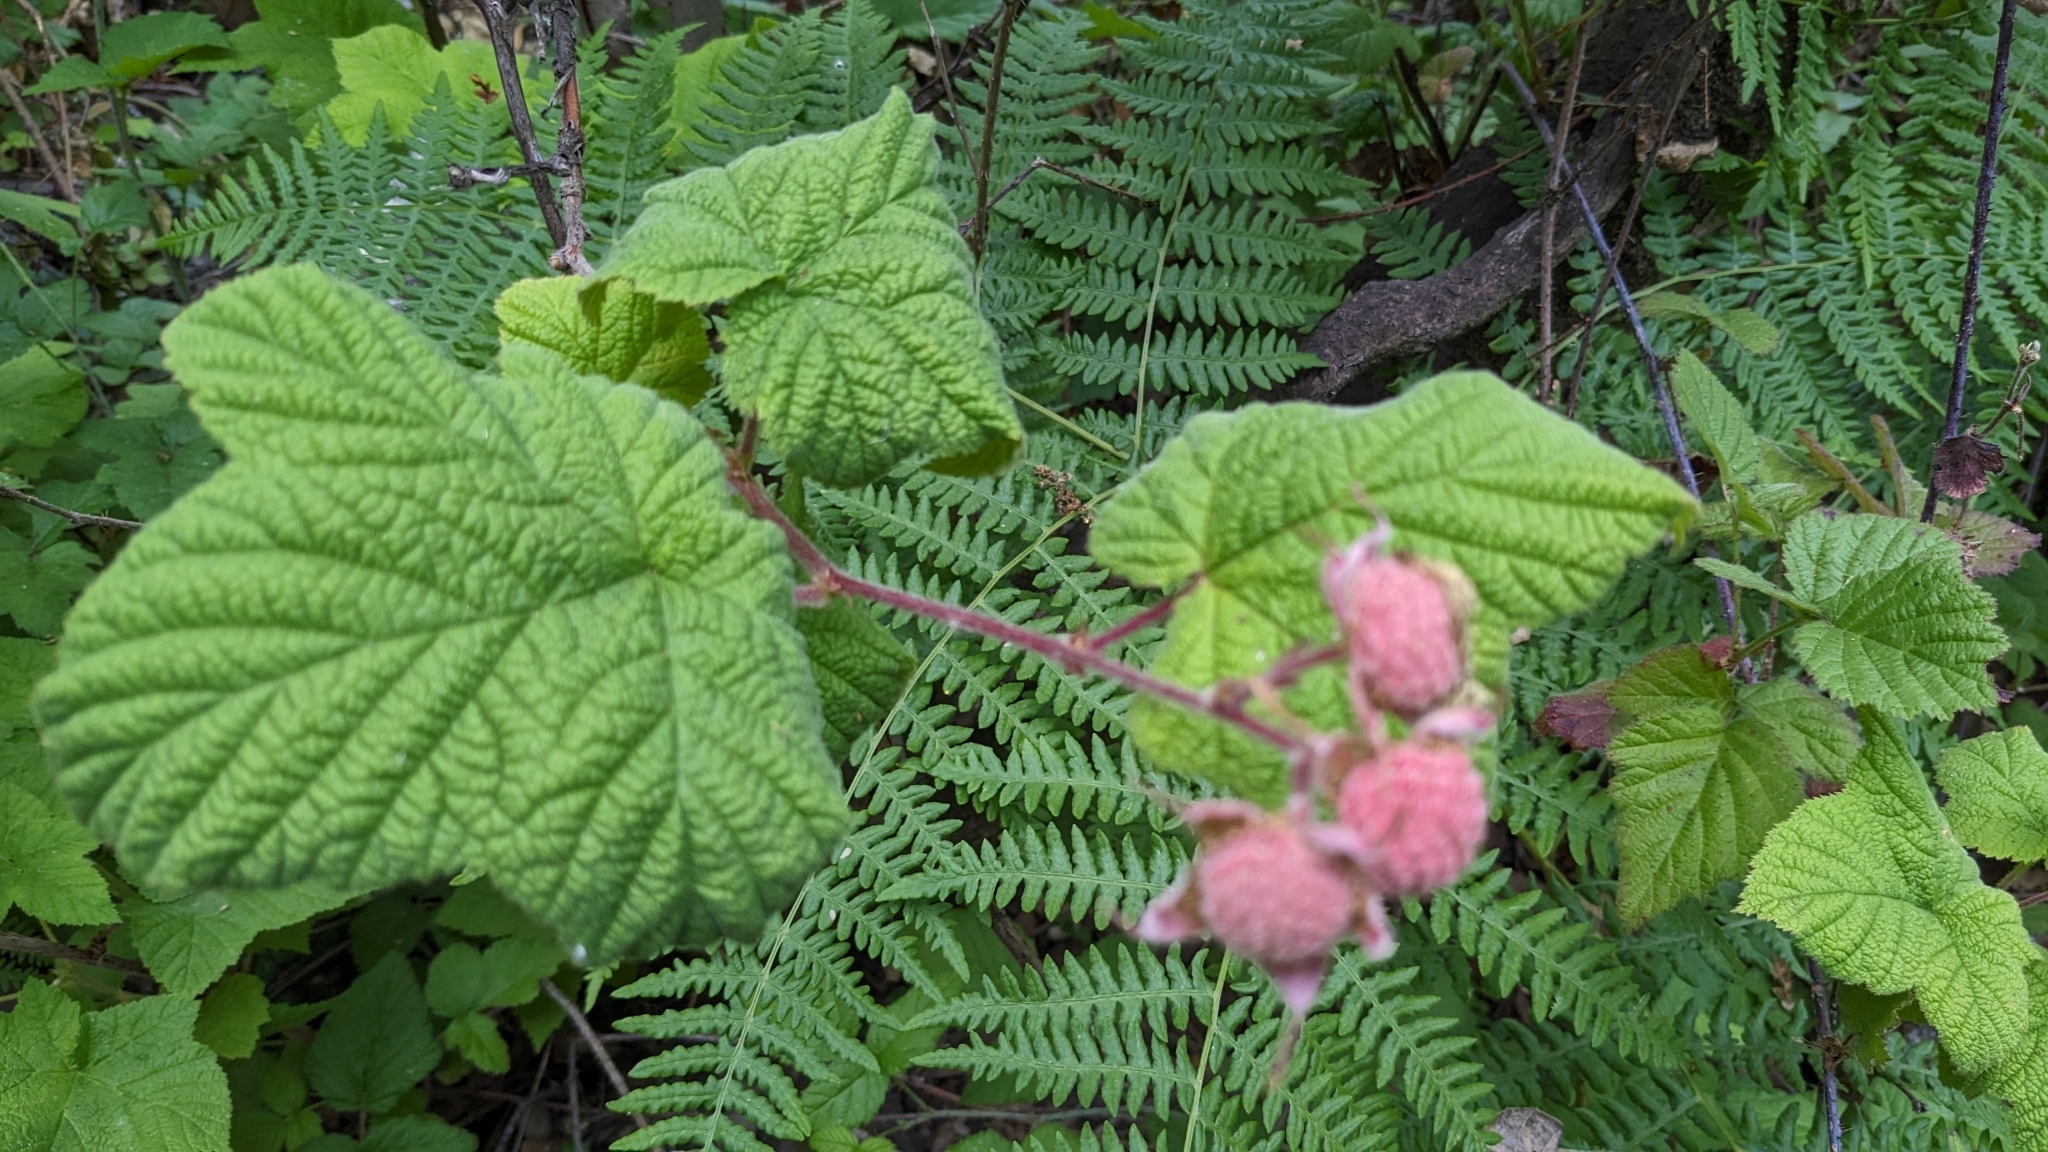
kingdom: Plantae
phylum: Tracheophyta
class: Magnoliopsida
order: Rosales
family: Rosaceae
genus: Rubus
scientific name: Rubus parviflorus
